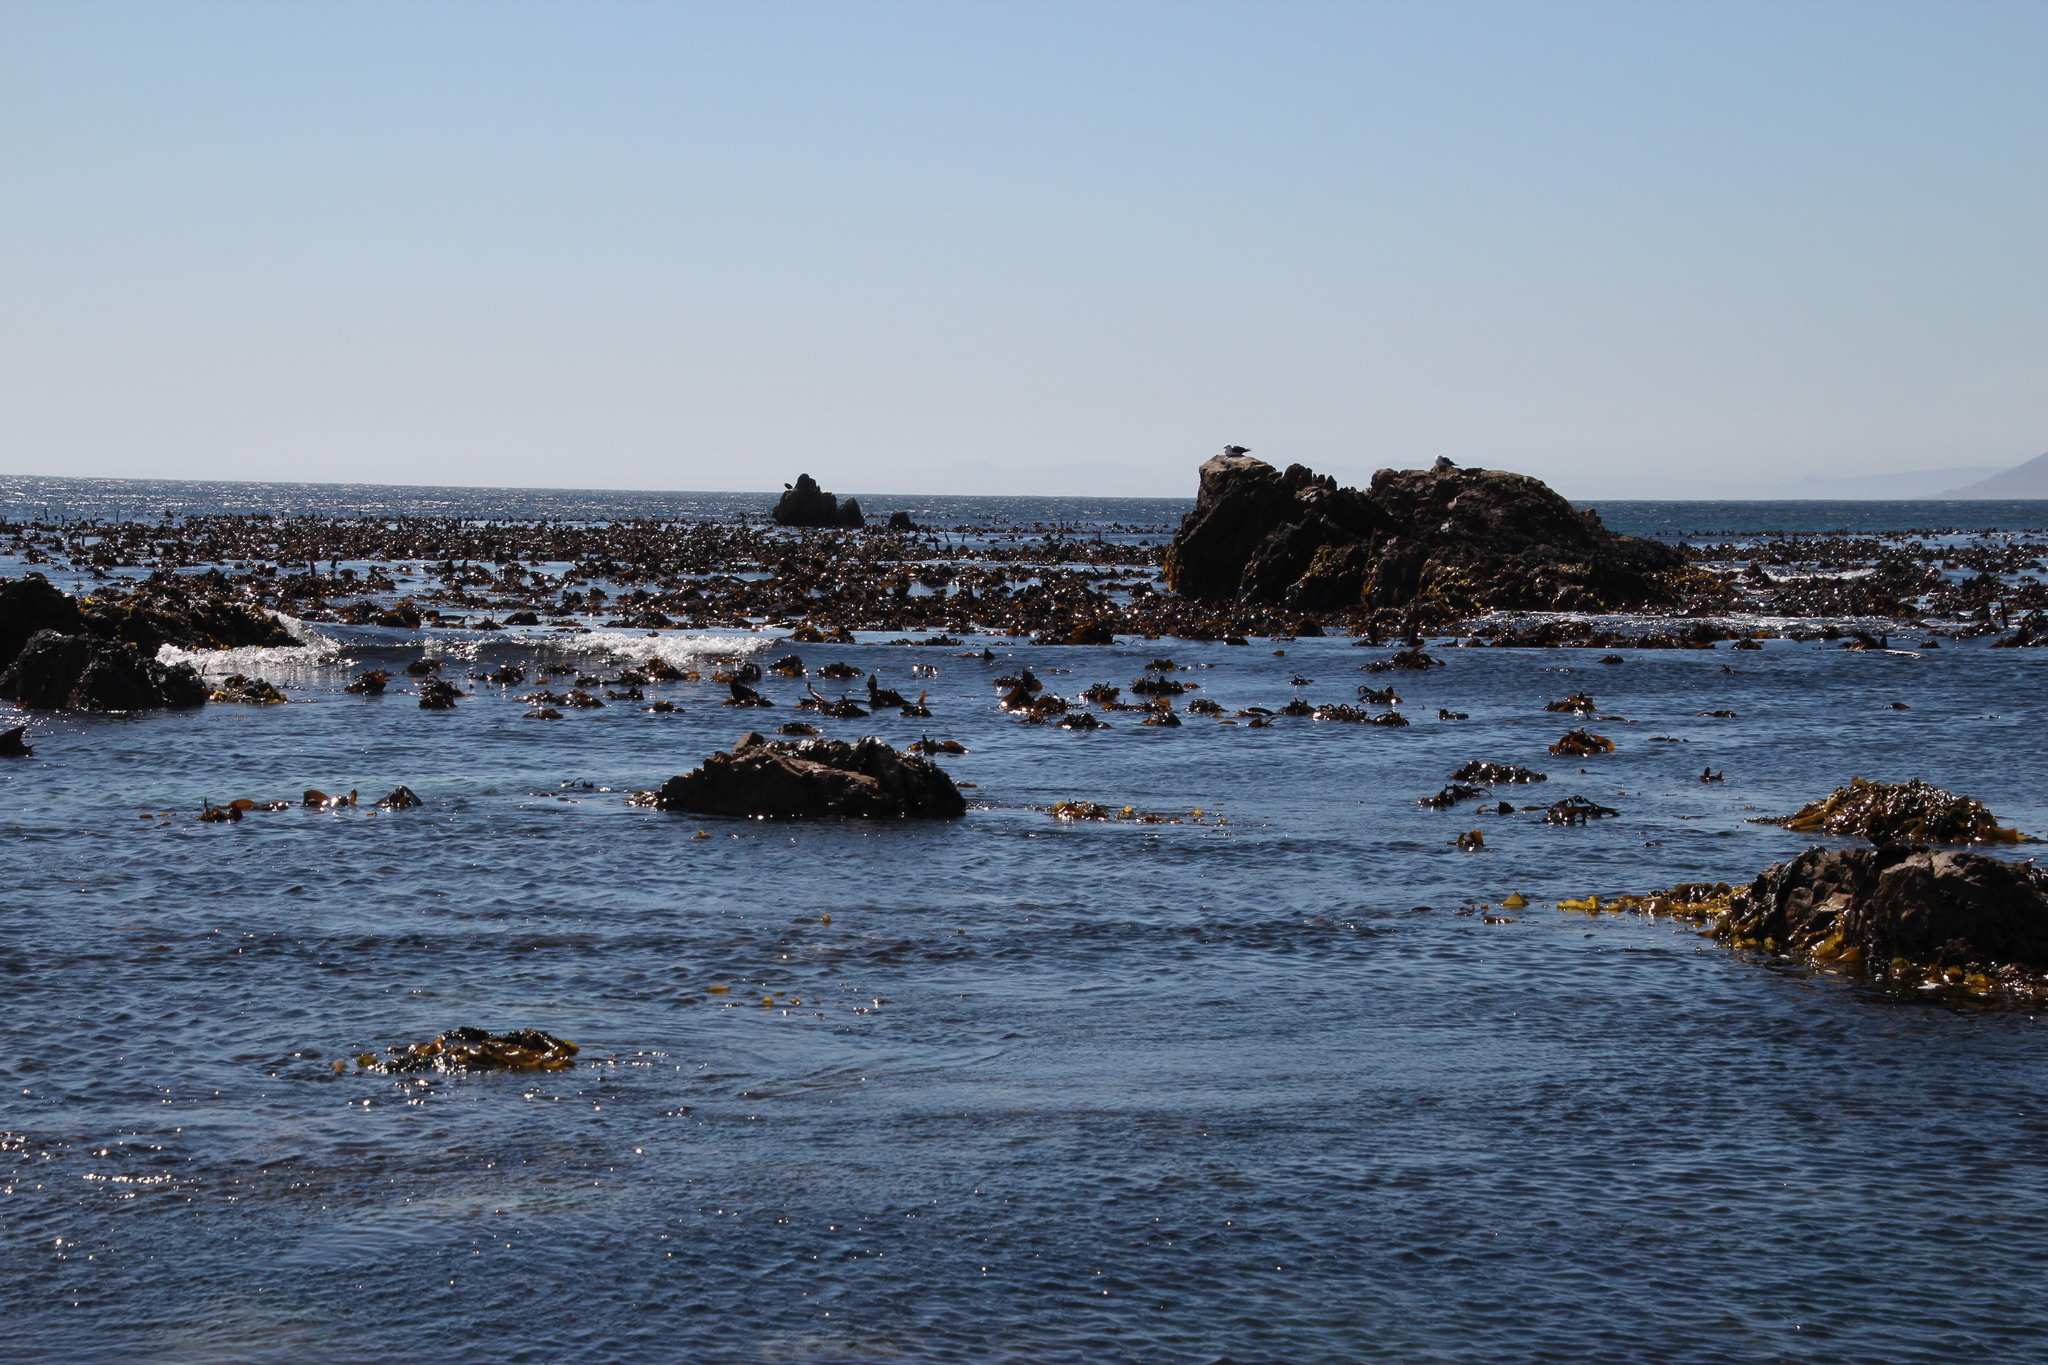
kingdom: Chromista
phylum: Ochrophyta
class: Phaeophyceae
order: Laminariales
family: Lessoniaceae
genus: Ecklonia
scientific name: Ecklonia
